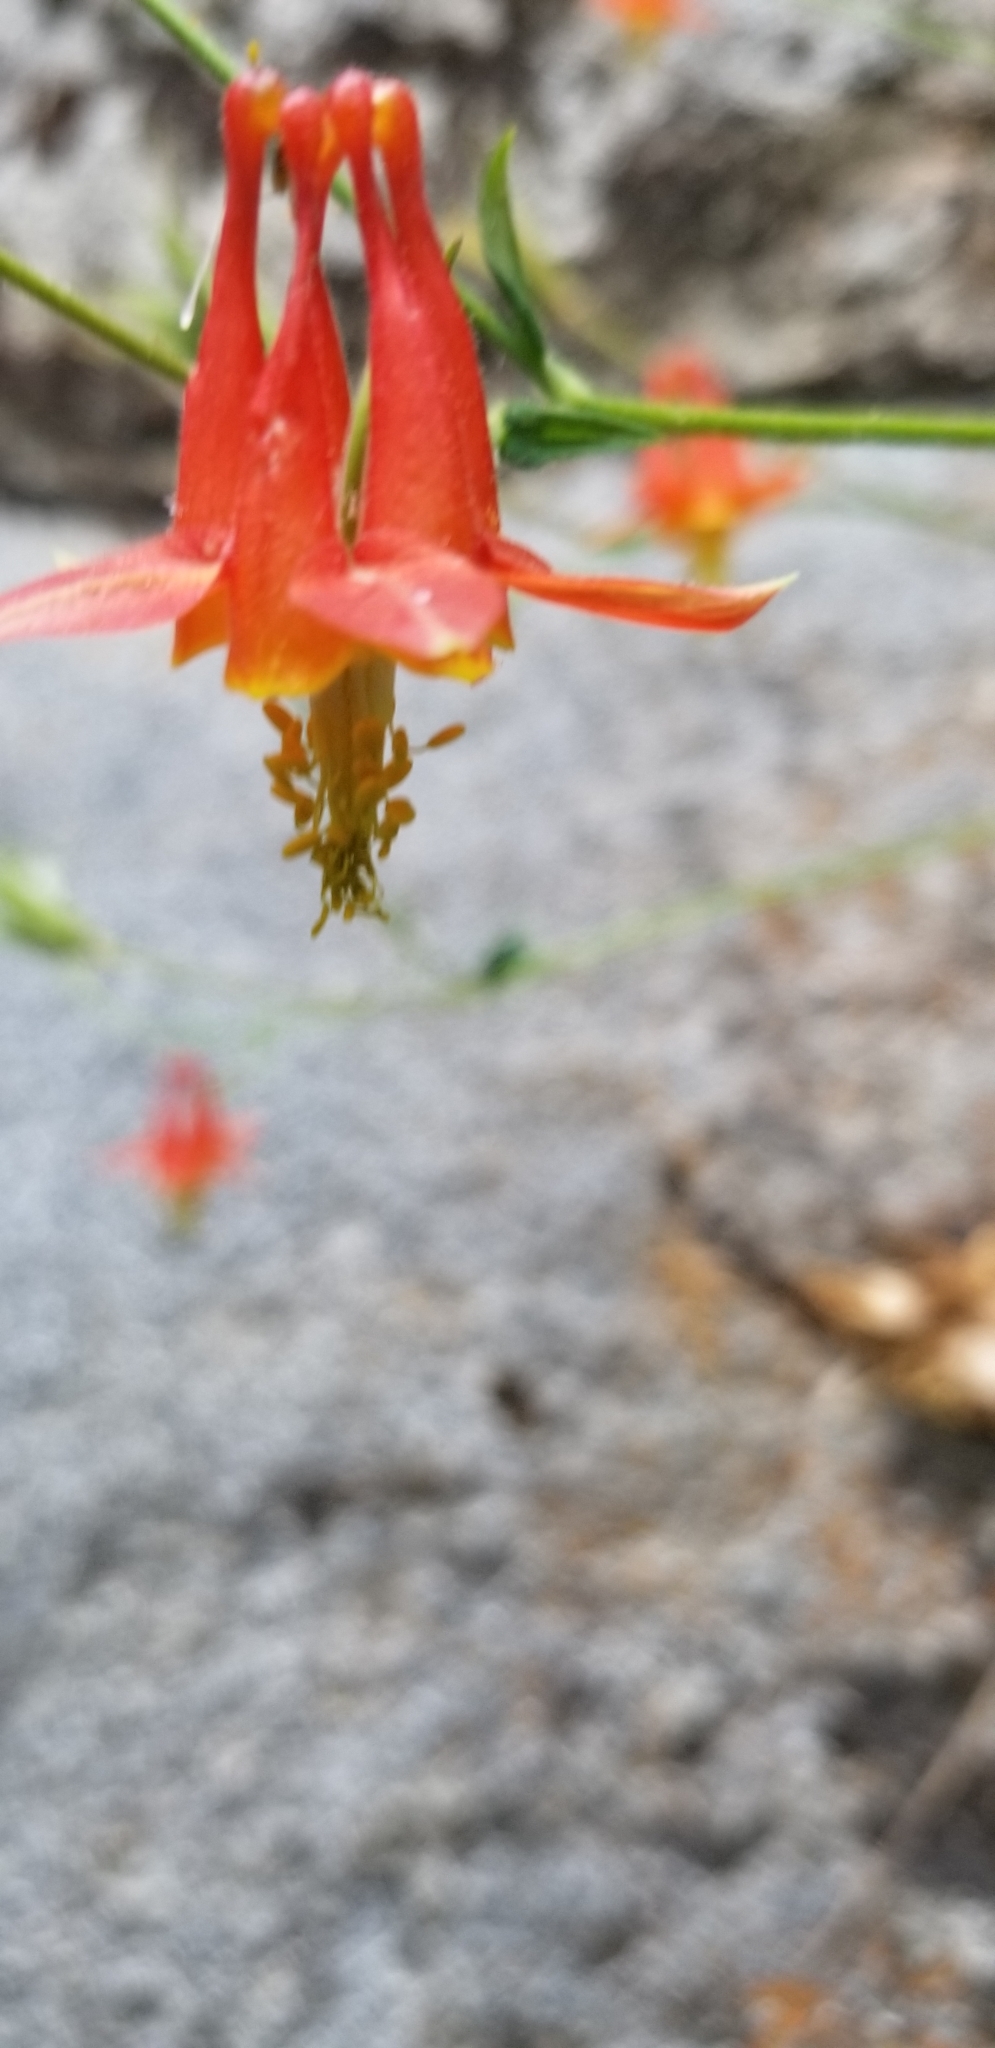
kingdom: Plantae
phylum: Tracheophyta
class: Magnoliopsida
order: Ranunculales
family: Ranunculaceae
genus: Aquilegia
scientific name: Aquilegia formosa
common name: Sitka columbine
